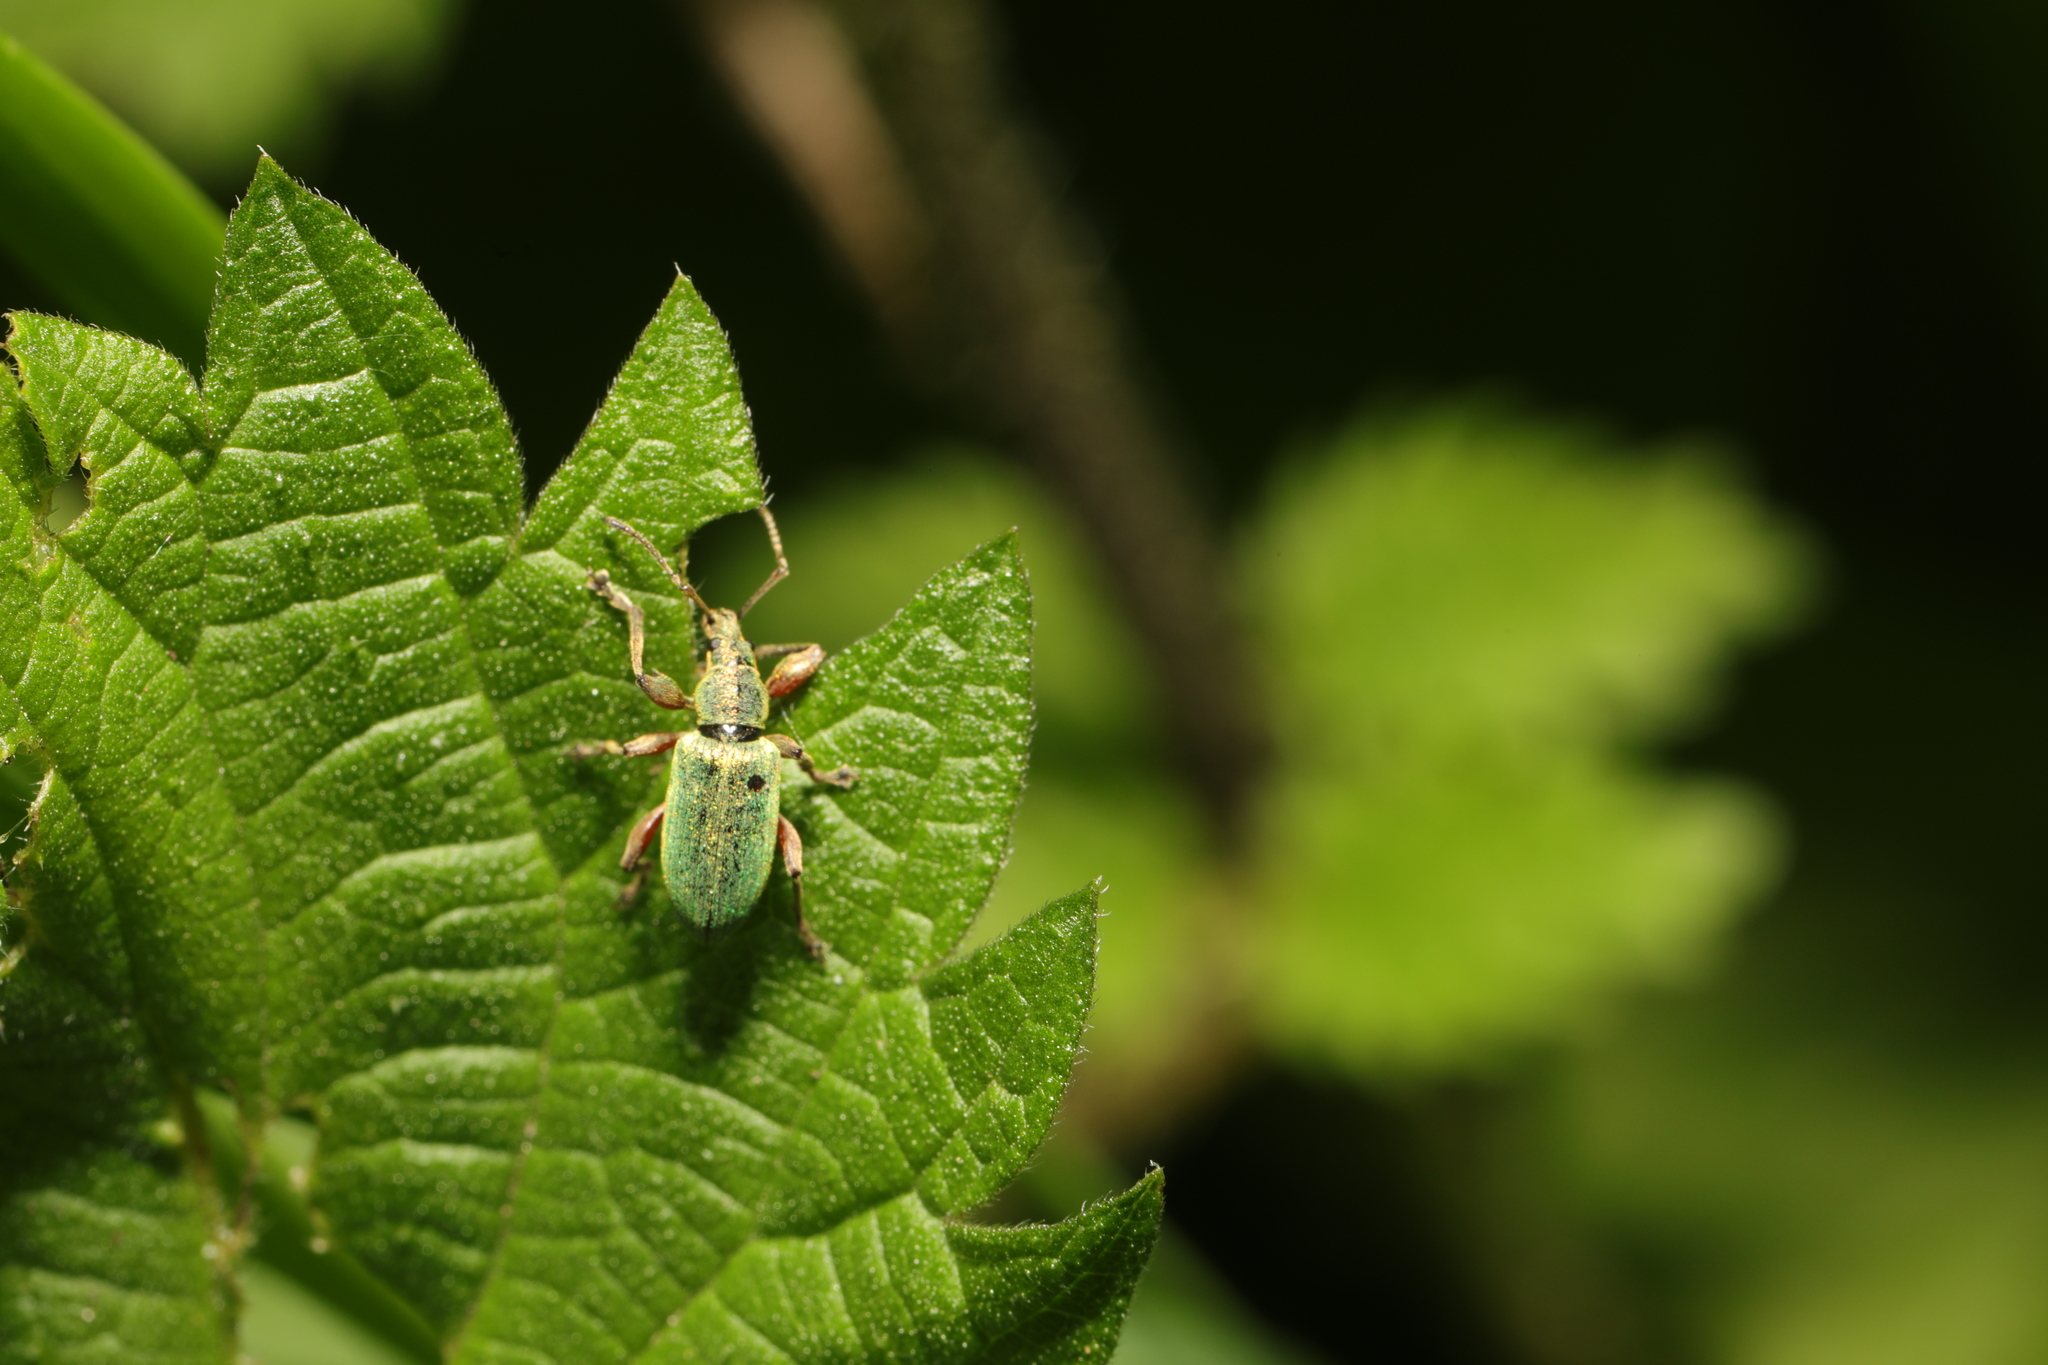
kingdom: Animalia
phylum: Arthropoda
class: Insecta
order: Coleoptera
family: Curculionidae
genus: Phyllobius
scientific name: Phyllobius pomaceus
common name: Green nettle weevil
